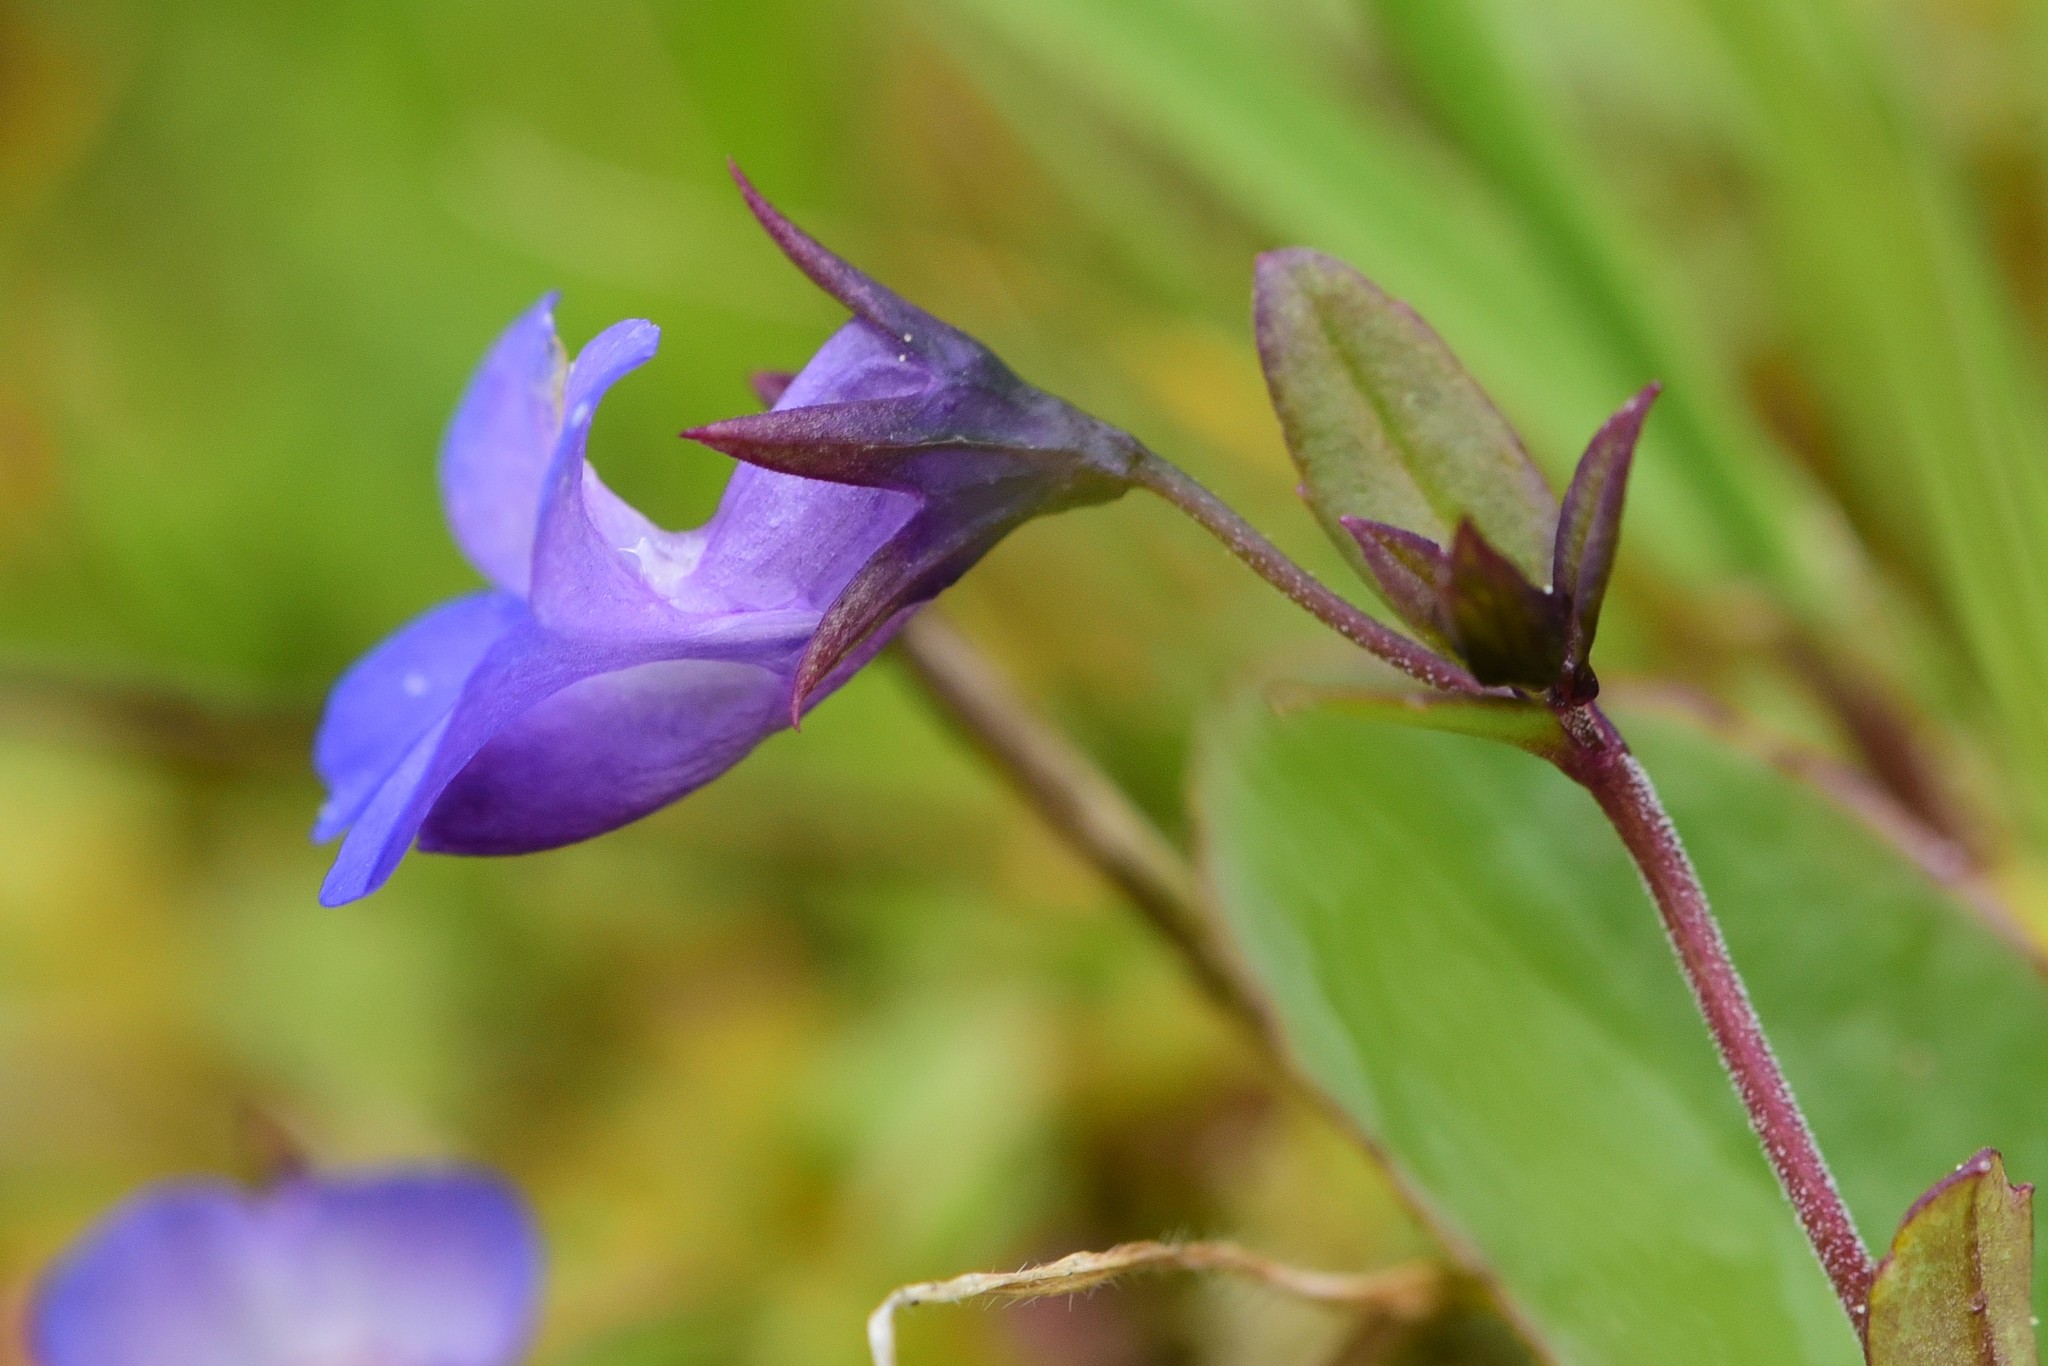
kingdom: Plantae
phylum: Tracheophyta
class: Magnoliopsida
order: Lamiales
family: Plantaginaceae
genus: Collinsia
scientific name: Collinsia grandiflora
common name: Large-flower blue-eyed-mary
